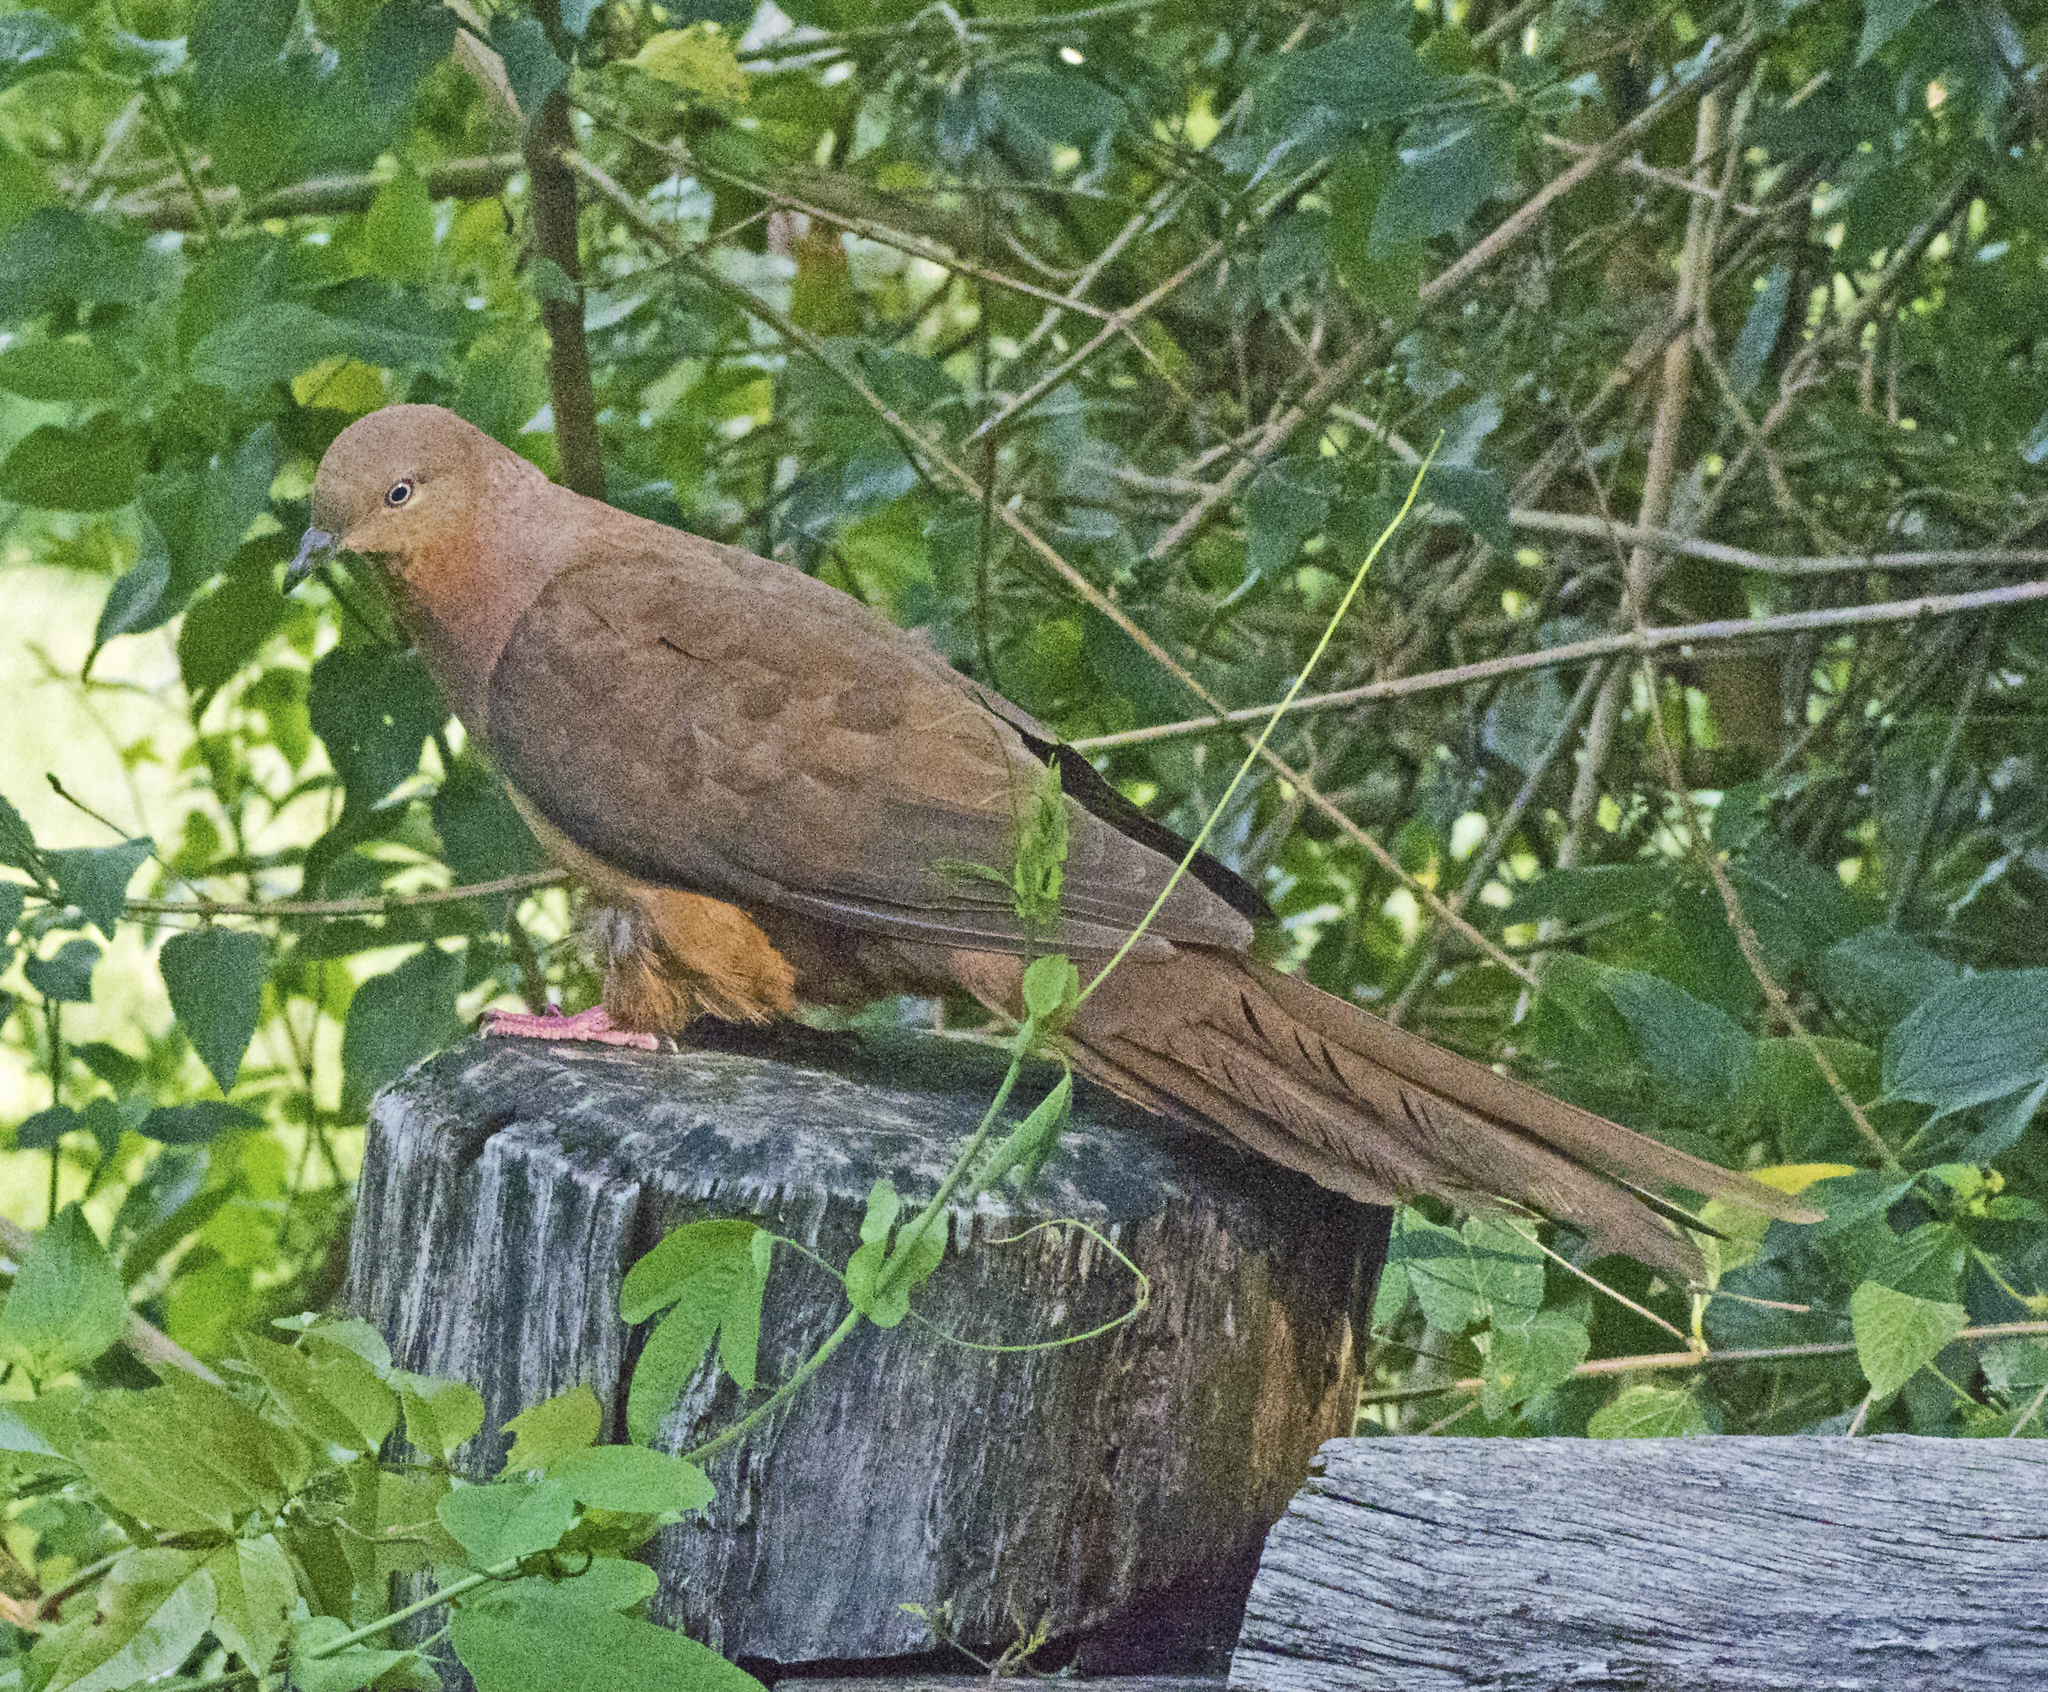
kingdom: Animalia
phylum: Chordata
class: Aves
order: Columbiformes
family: Columbidae
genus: Macropygia
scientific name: Macropygia phasianella
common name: Brown cuckoo-dove
